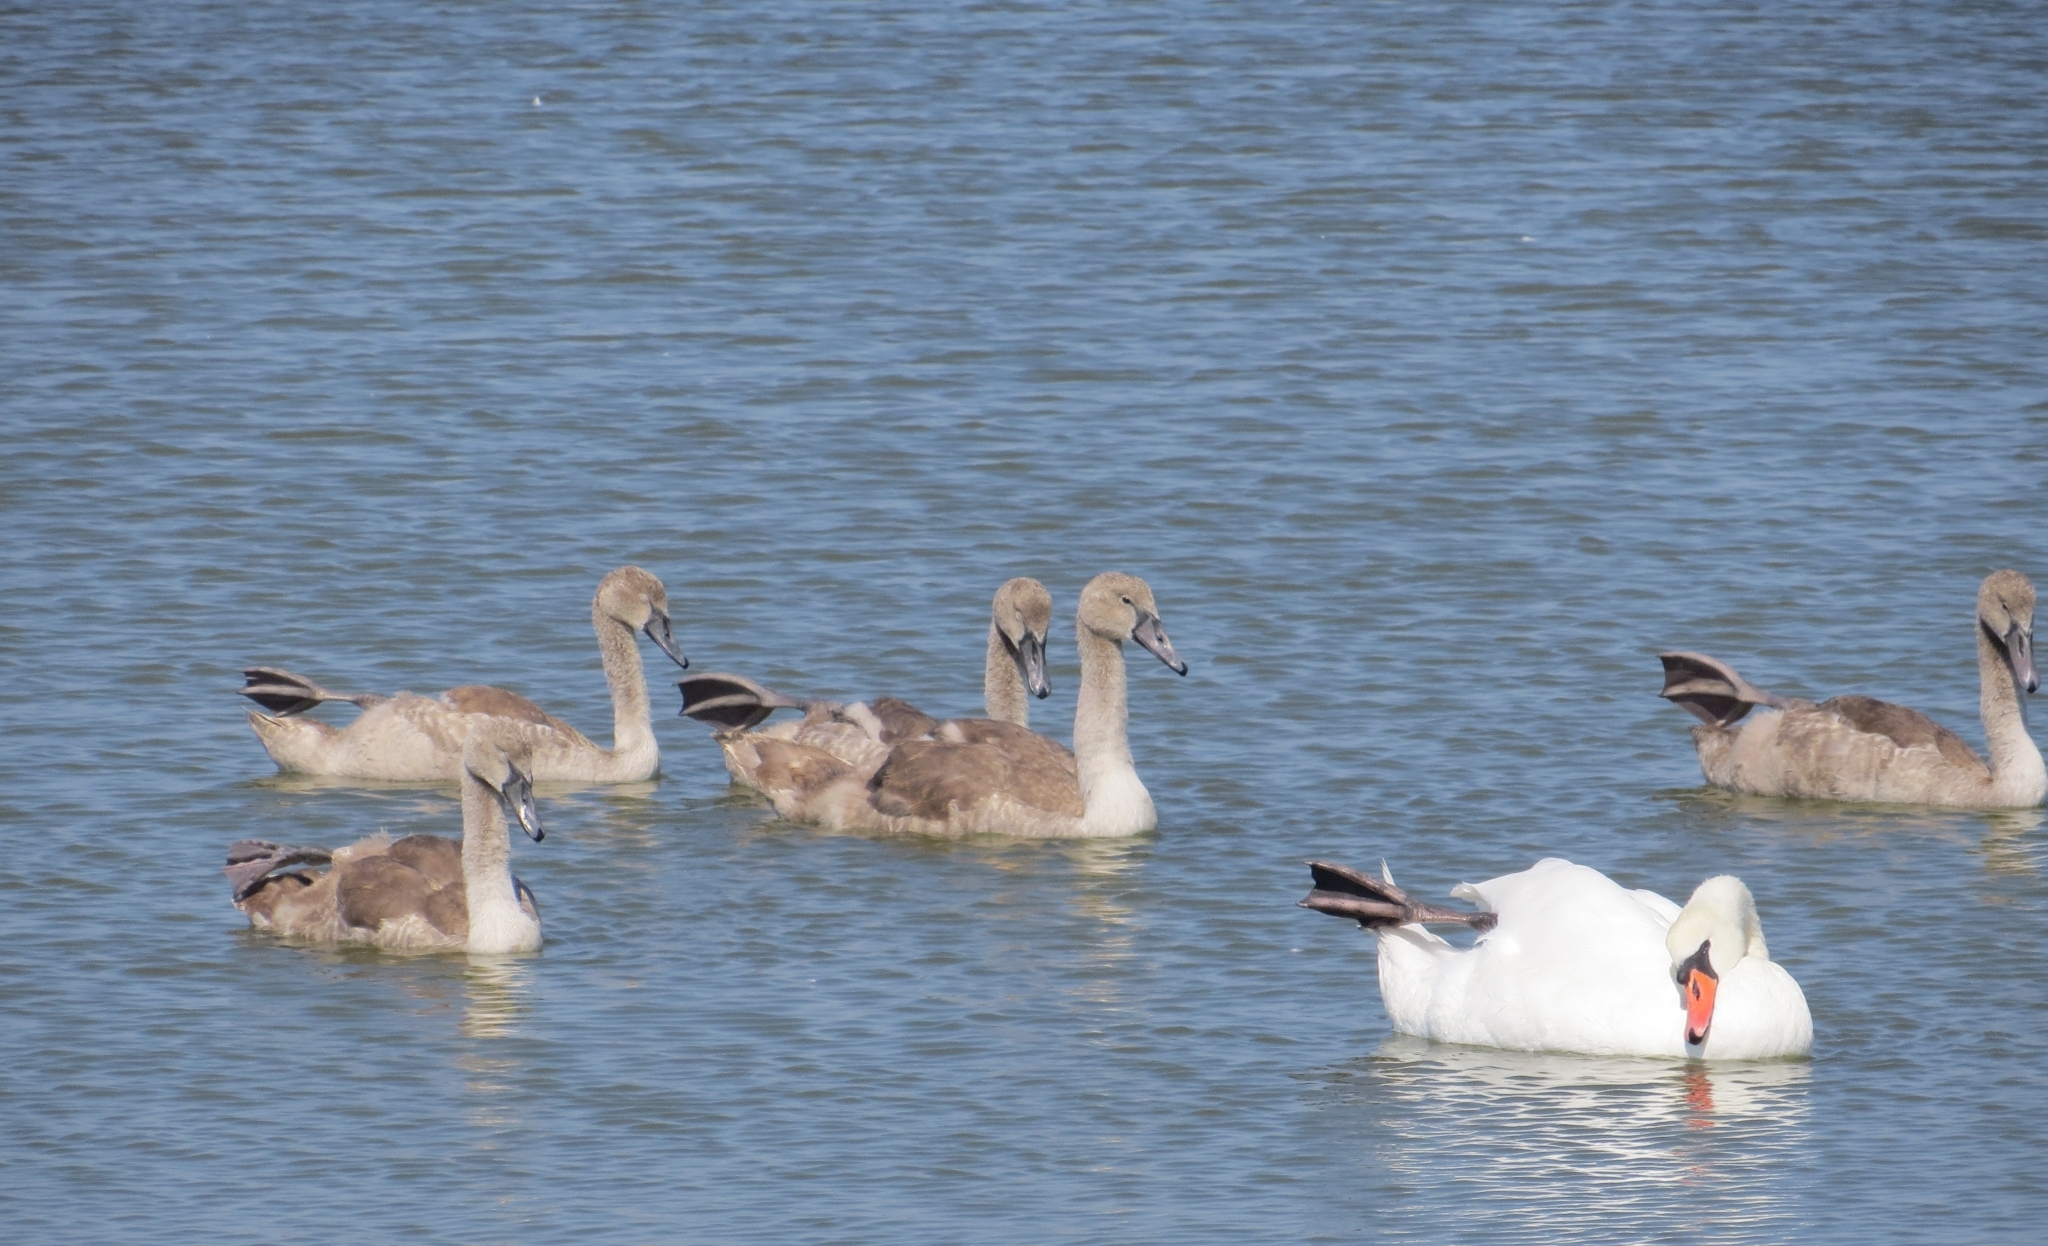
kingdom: Animalia
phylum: Chordata
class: Aves
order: Anseriformes
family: Anatidae
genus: Cygnus
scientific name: Cygnus olor
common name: Mute swan
